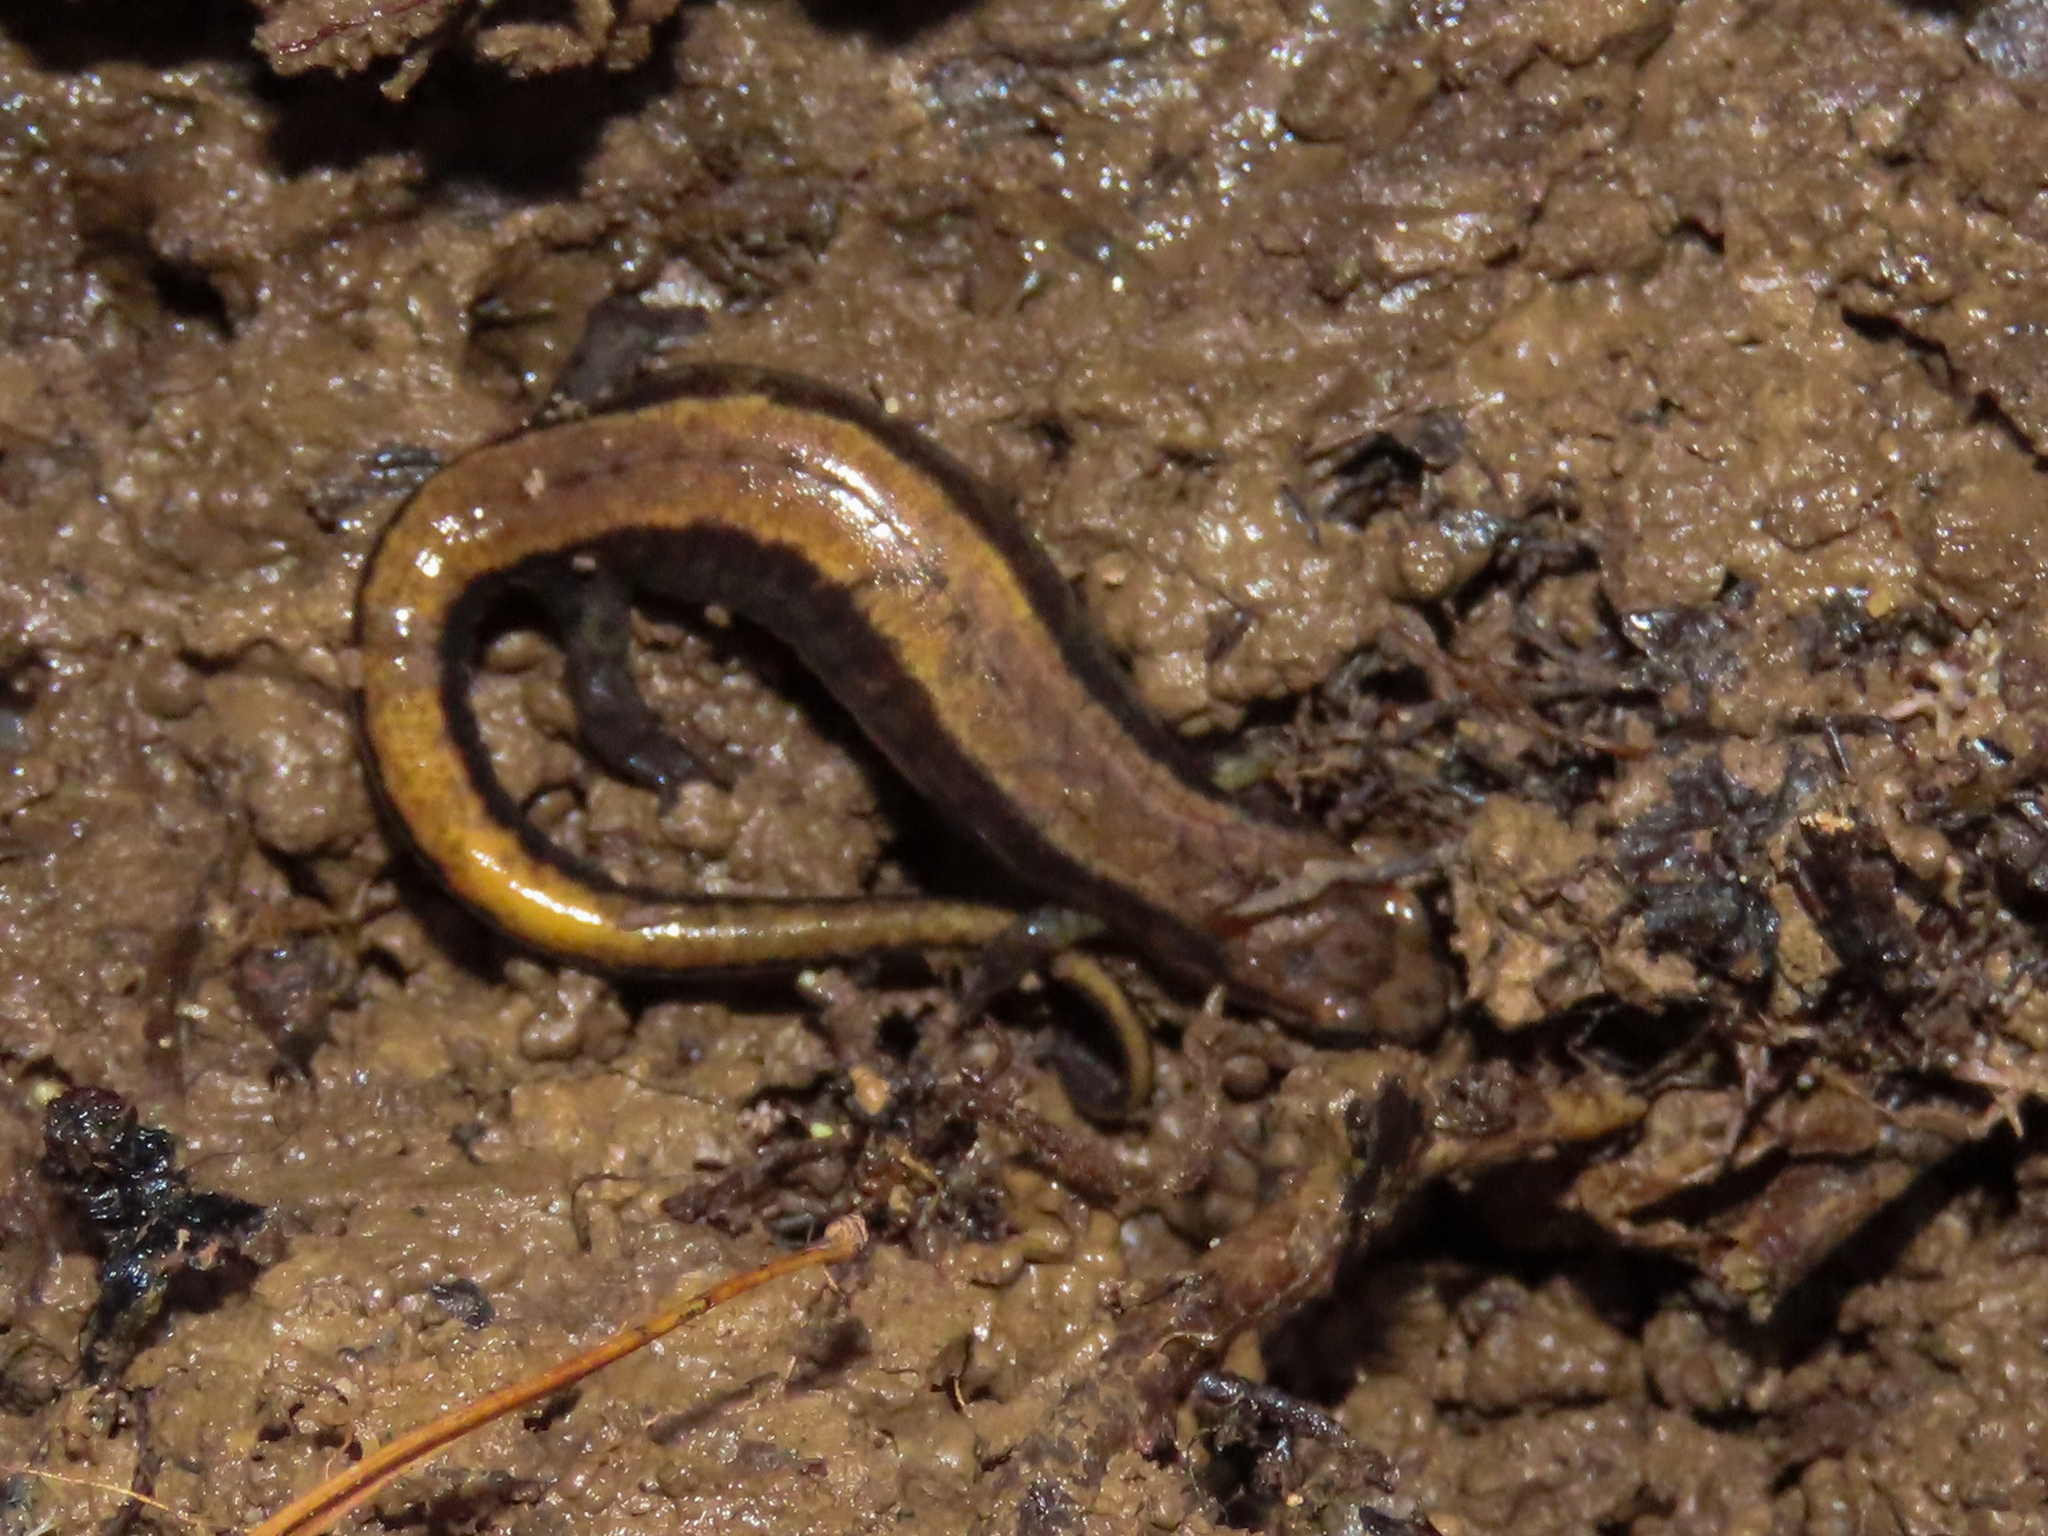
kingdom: Animalia
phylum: Chordata
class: Amphibia
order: Caudata
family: Plethodontidae
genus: Desmognathus
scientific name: Desmognathus ochrophaeus
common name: Allegheny mountain dusky salamander
